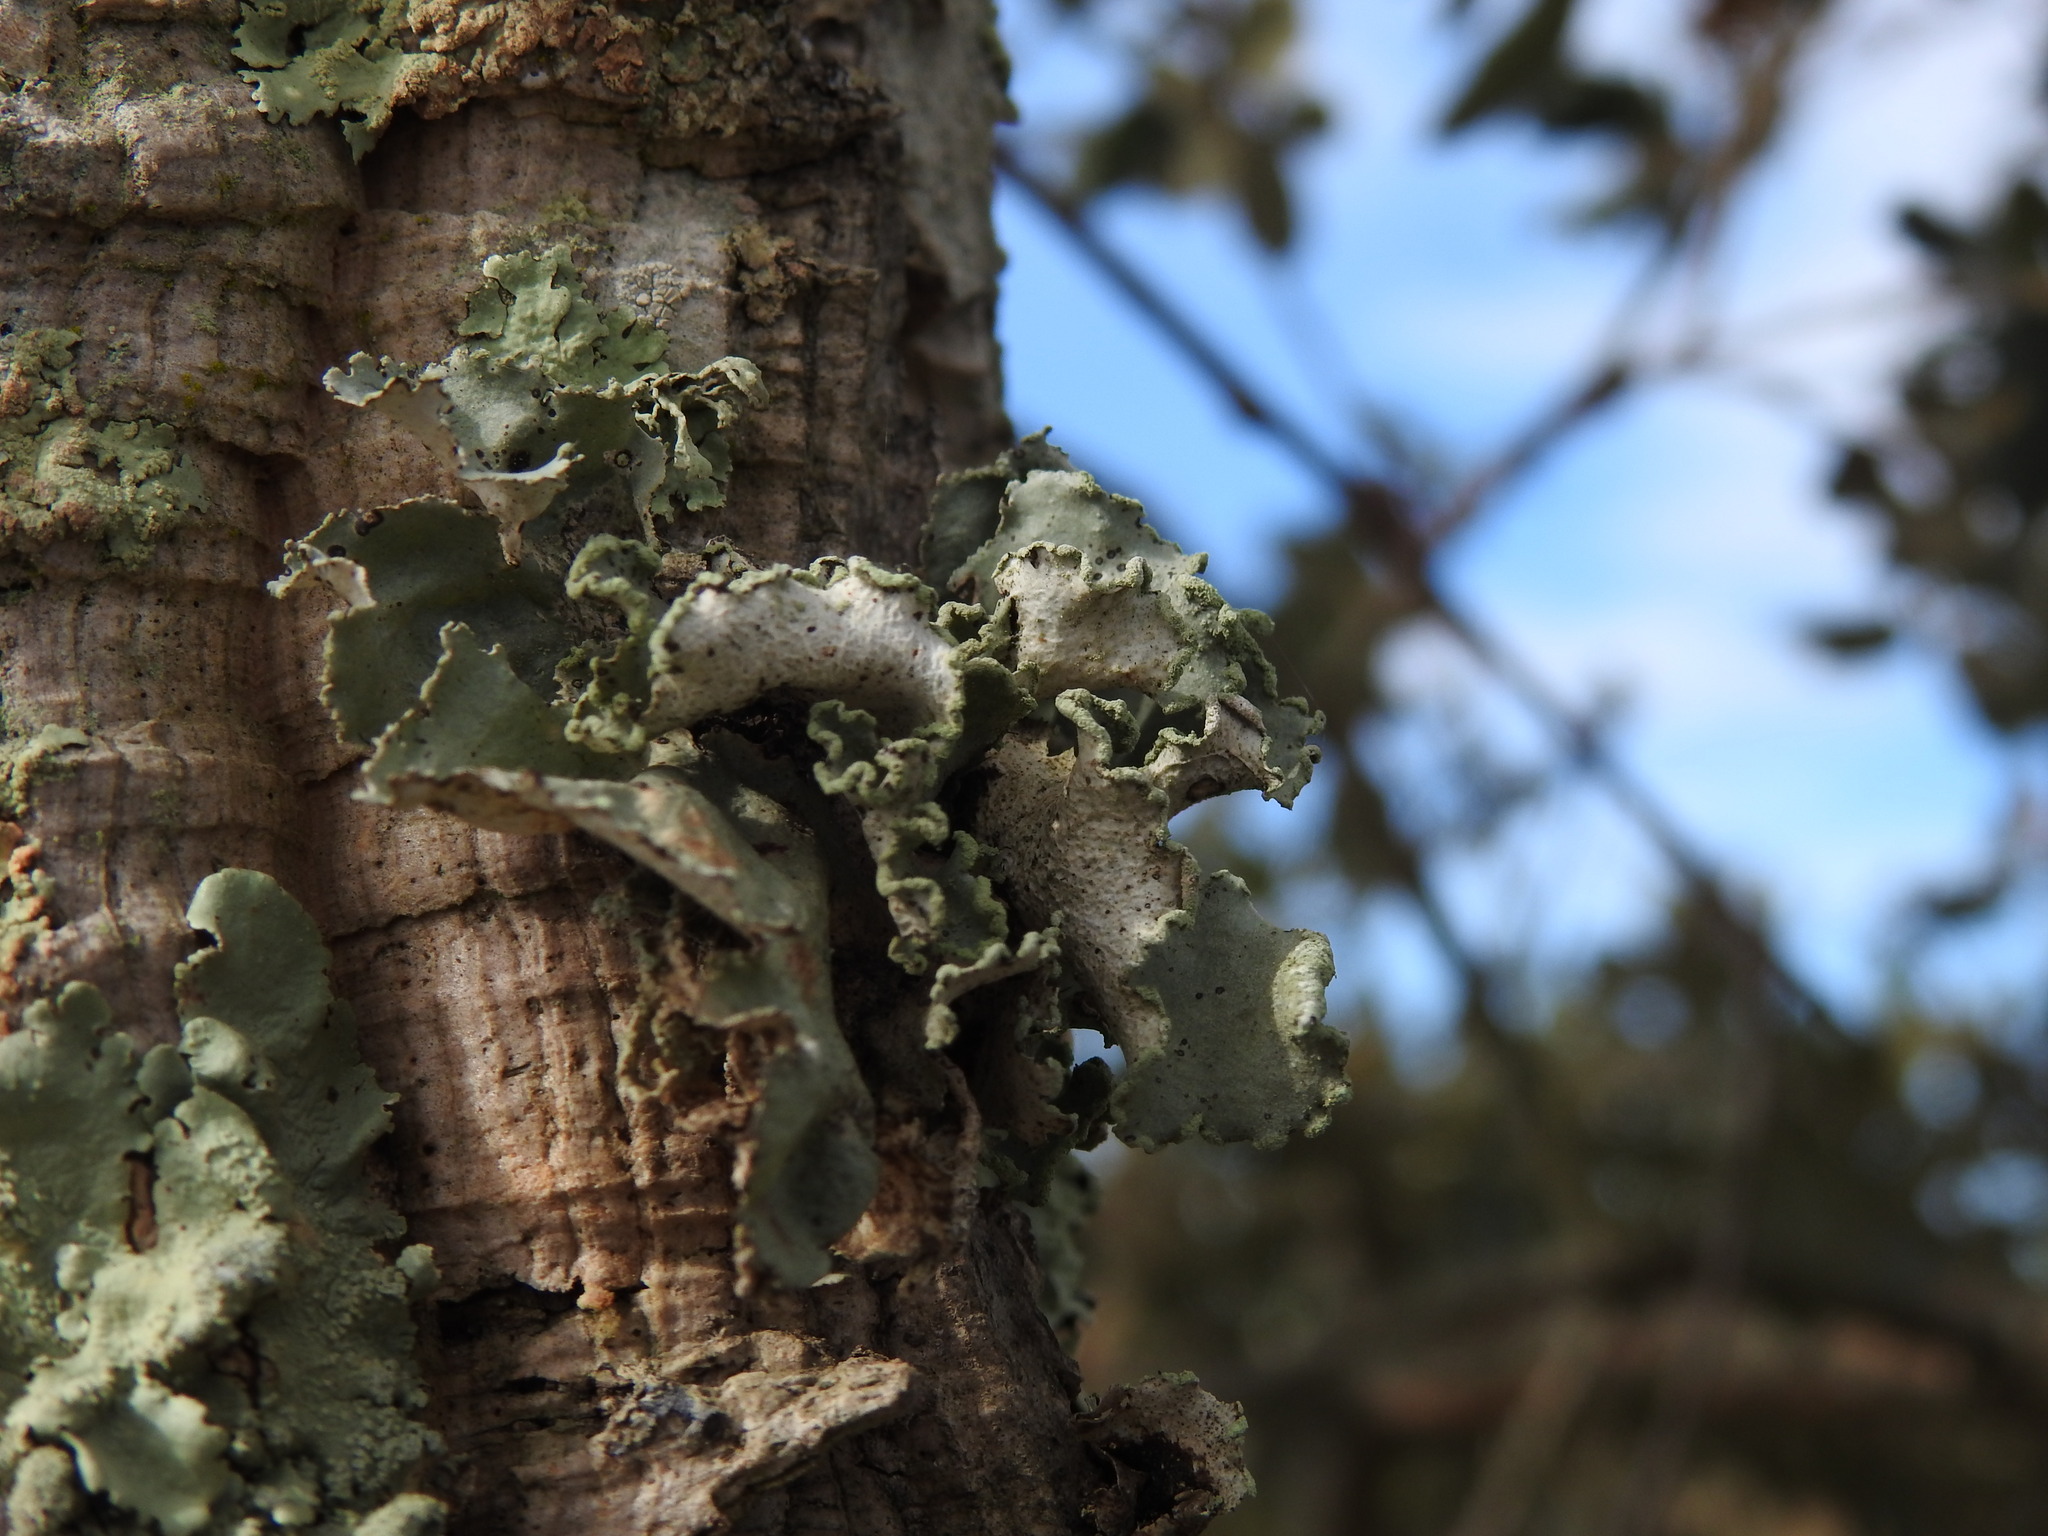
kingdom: Fungi
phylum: Ascomycota
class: Lecanoromycetes
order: Lecanorales
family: Parmeliaceae
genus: Parmotrema
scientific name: Parmotrema hypoleucinum
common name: Lacy powdered-ruffle
